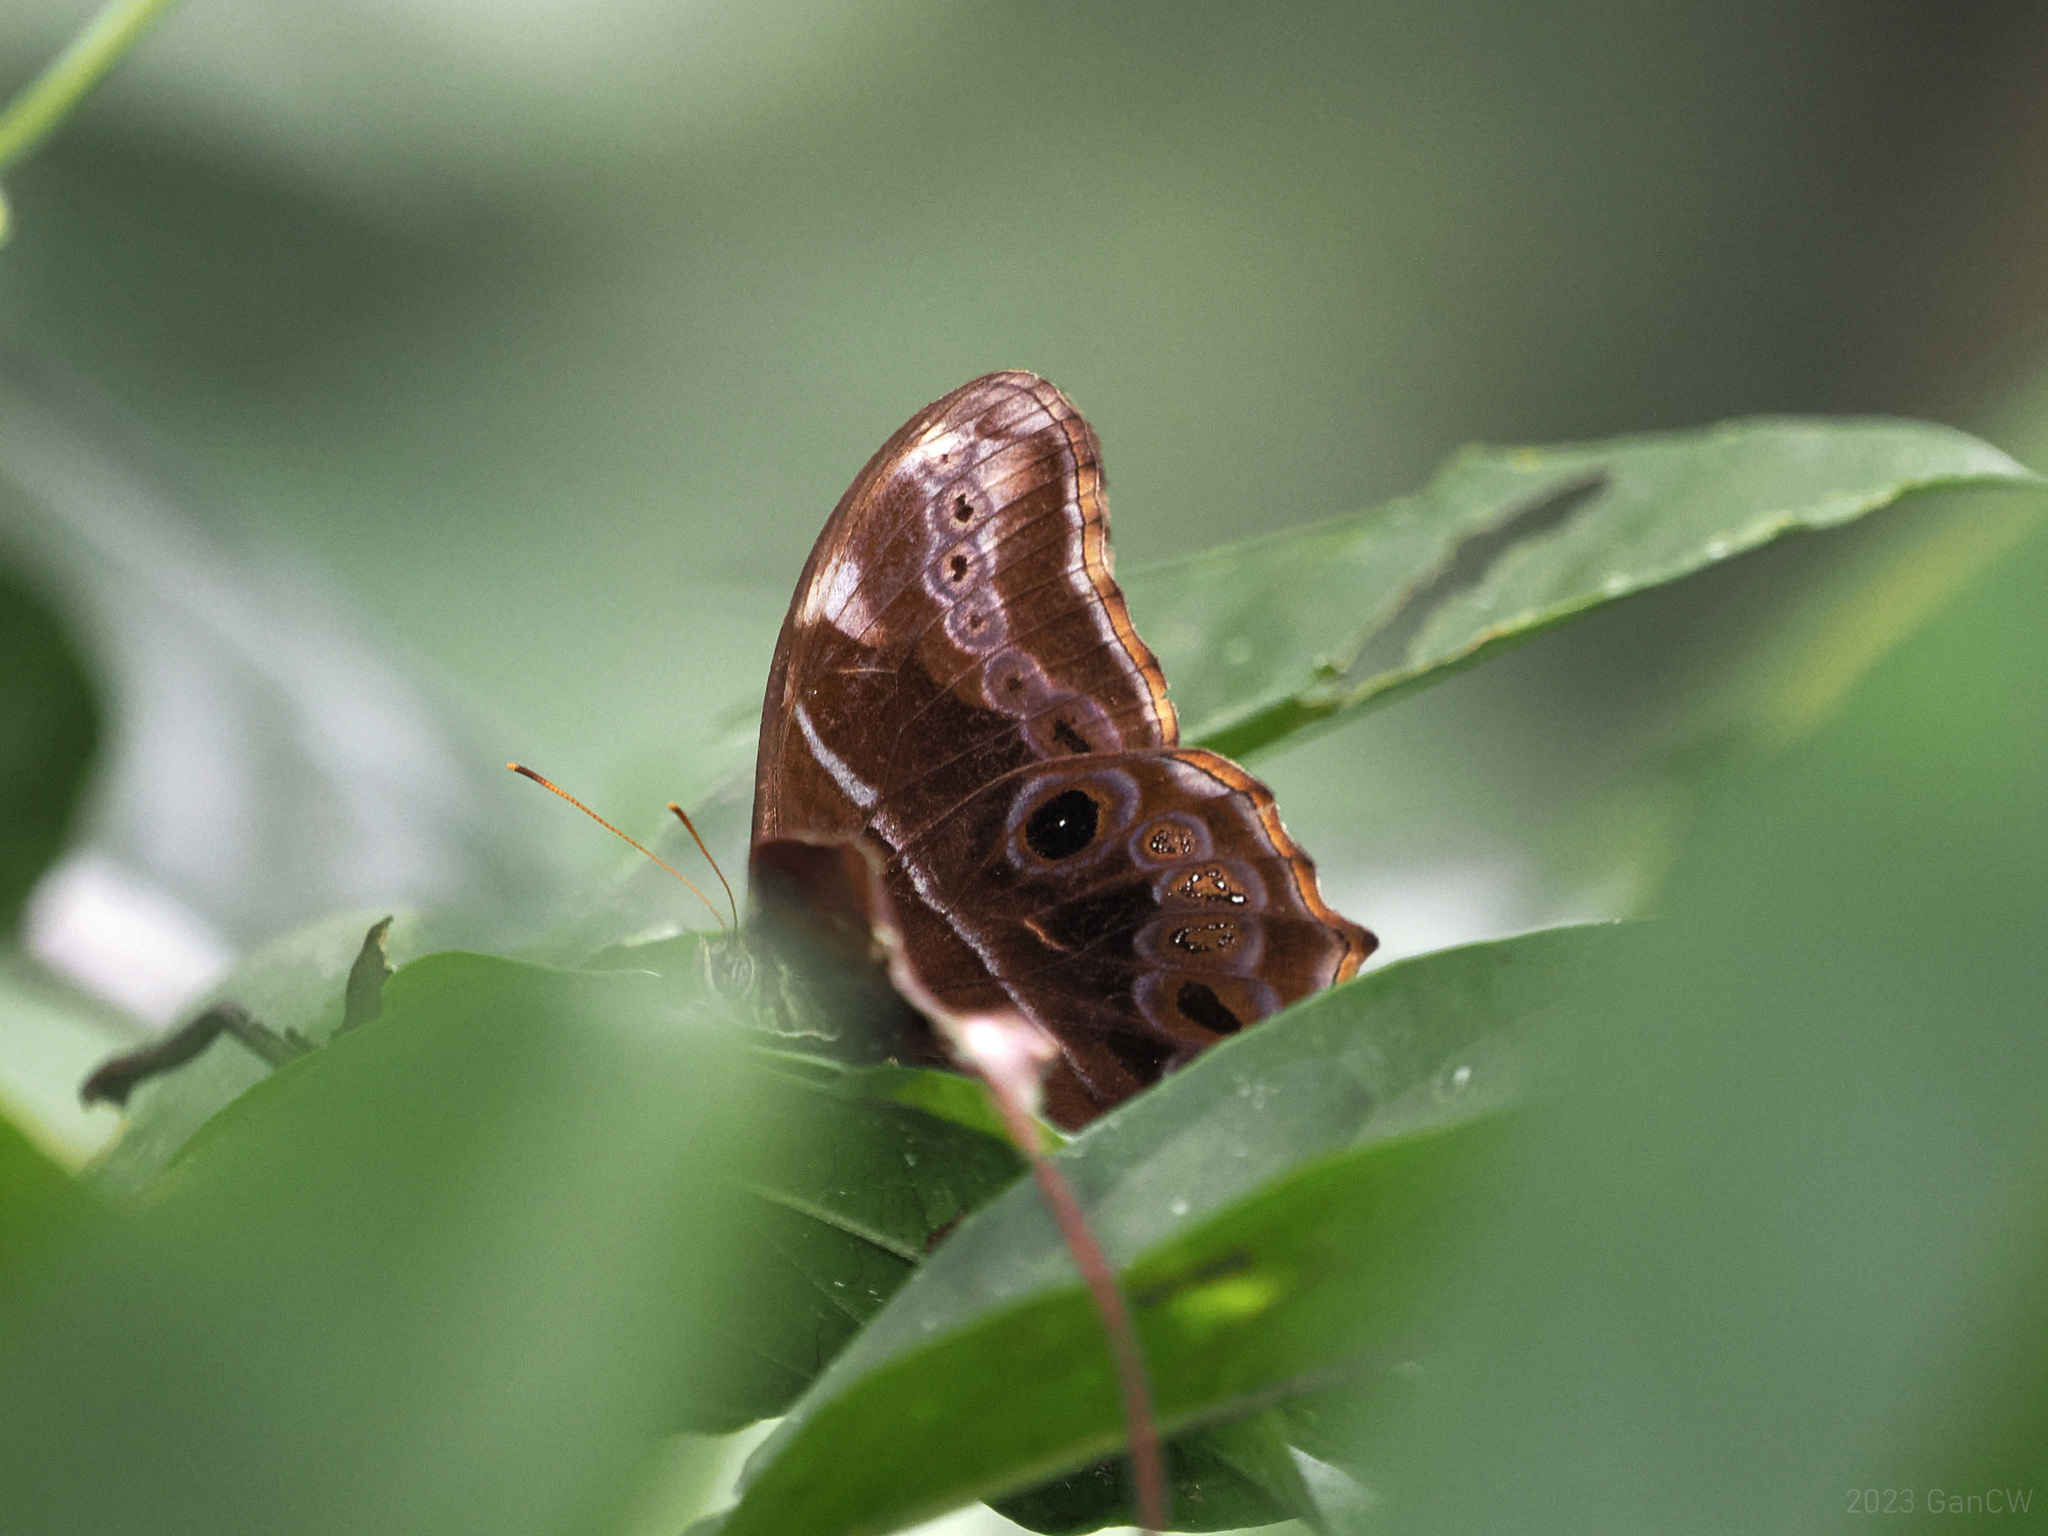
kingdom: Animalia
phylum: Arthropoda
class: Insecta
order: Lepidoptera
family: Nymphalidae
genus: Lethe
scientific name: Lethe arete
